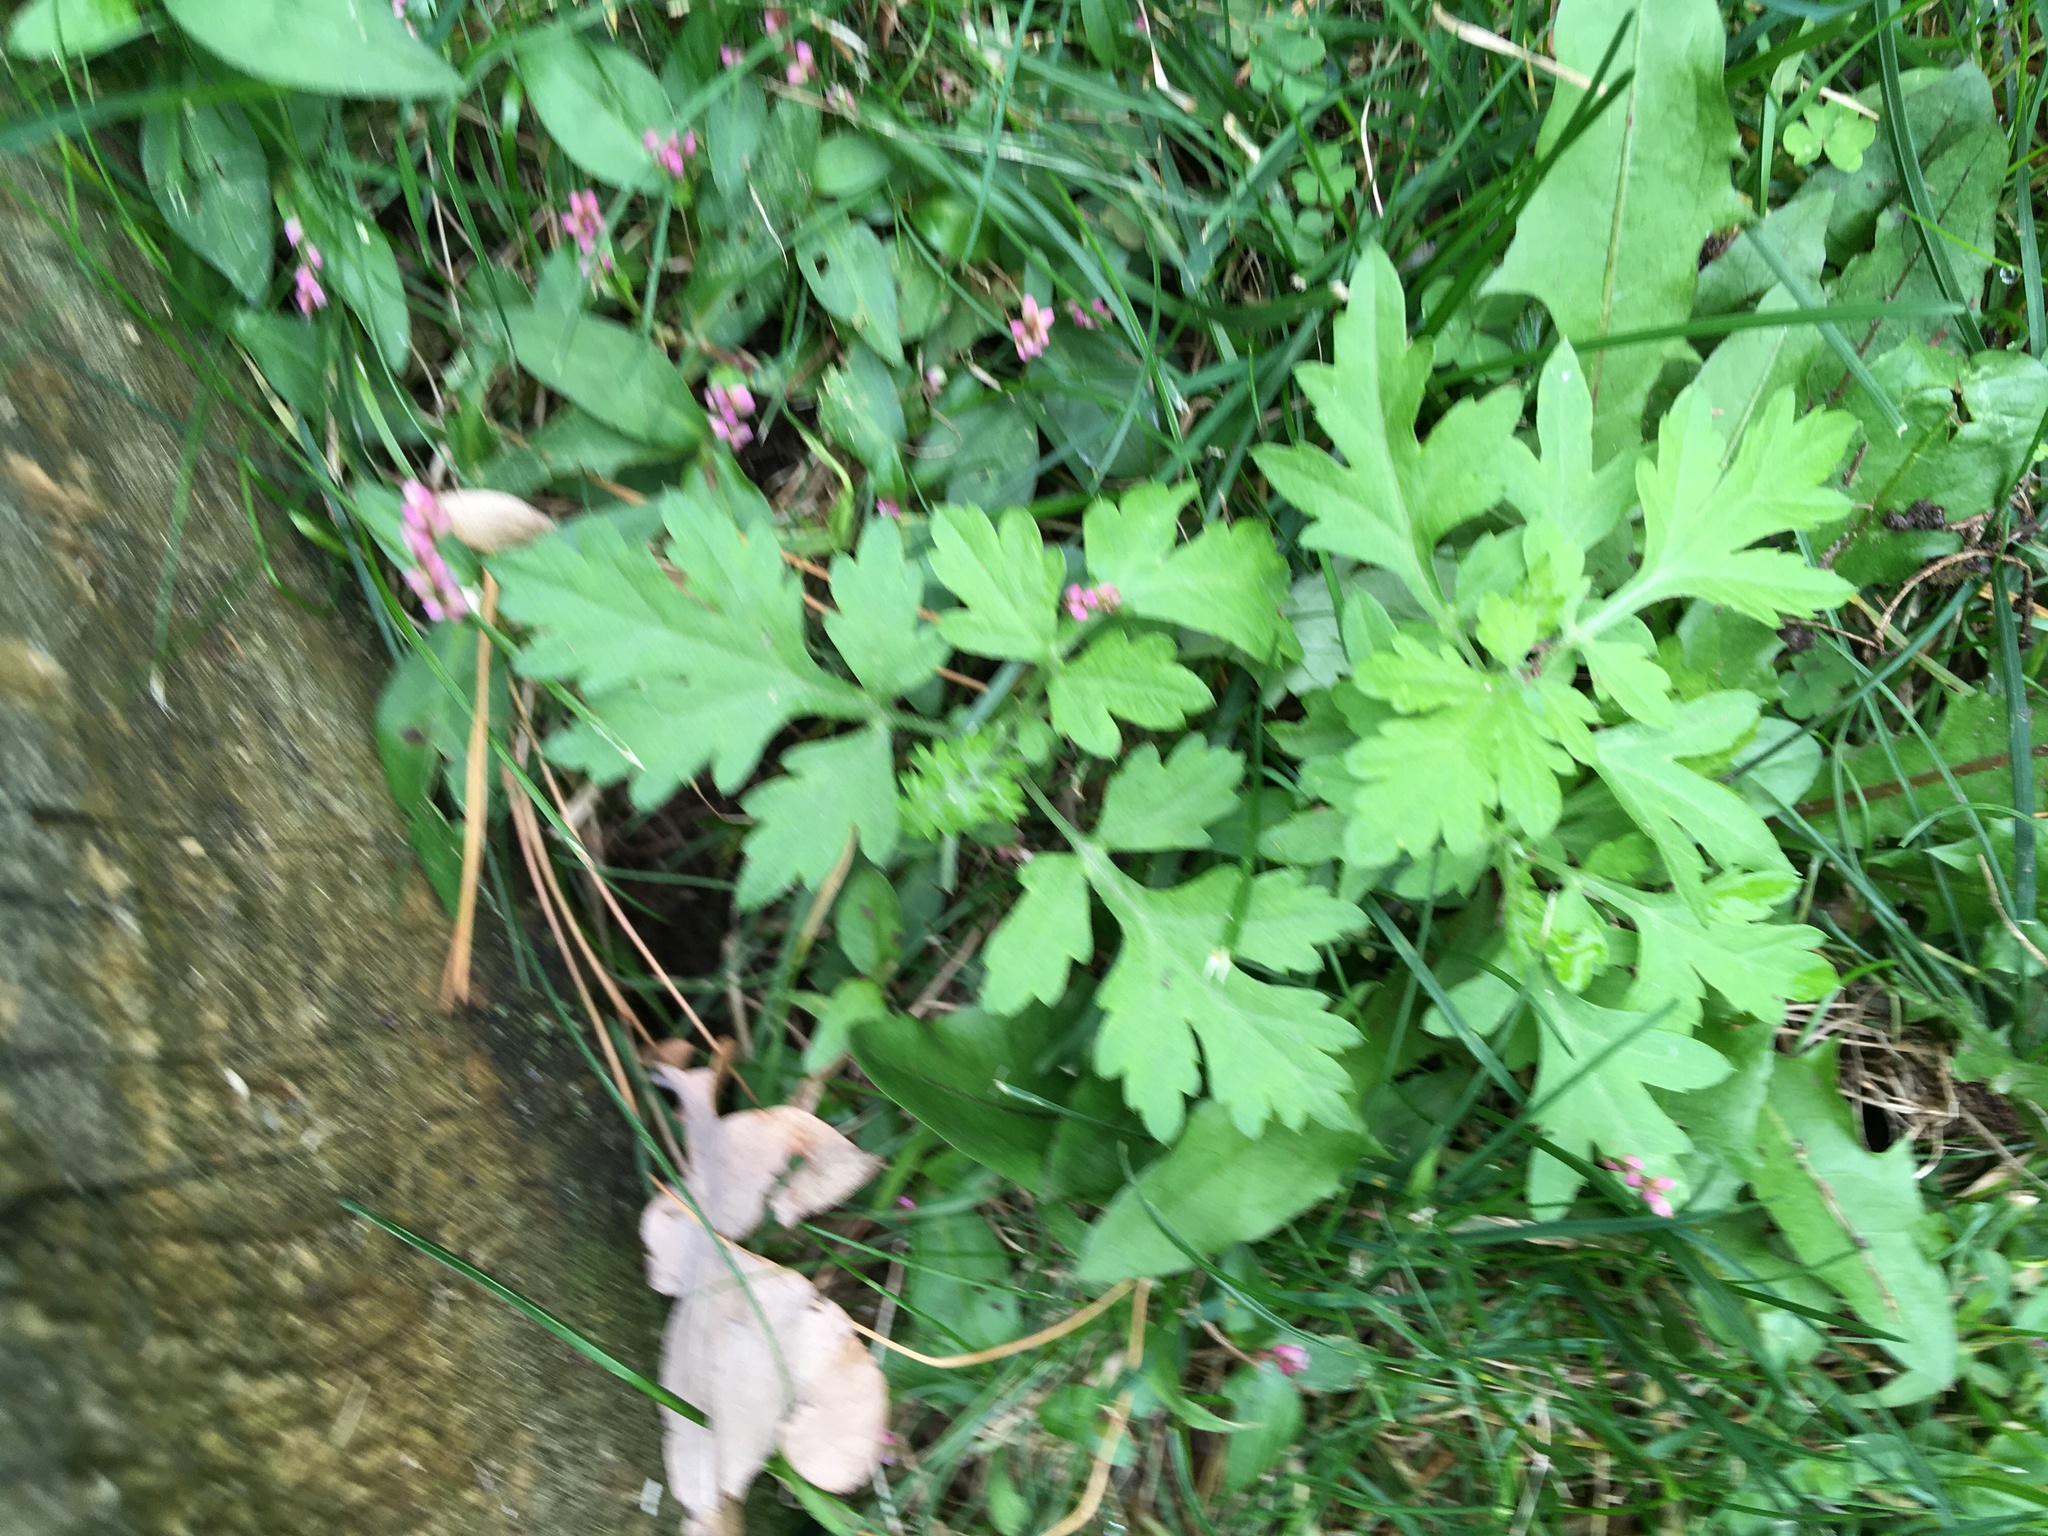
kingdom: Plantae
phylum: Tracheophyta
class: Magnoliopsida
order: Asterales
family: Asteraceae
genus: Artemisia
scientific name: Artemisia vulgaris
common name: Mugwort
